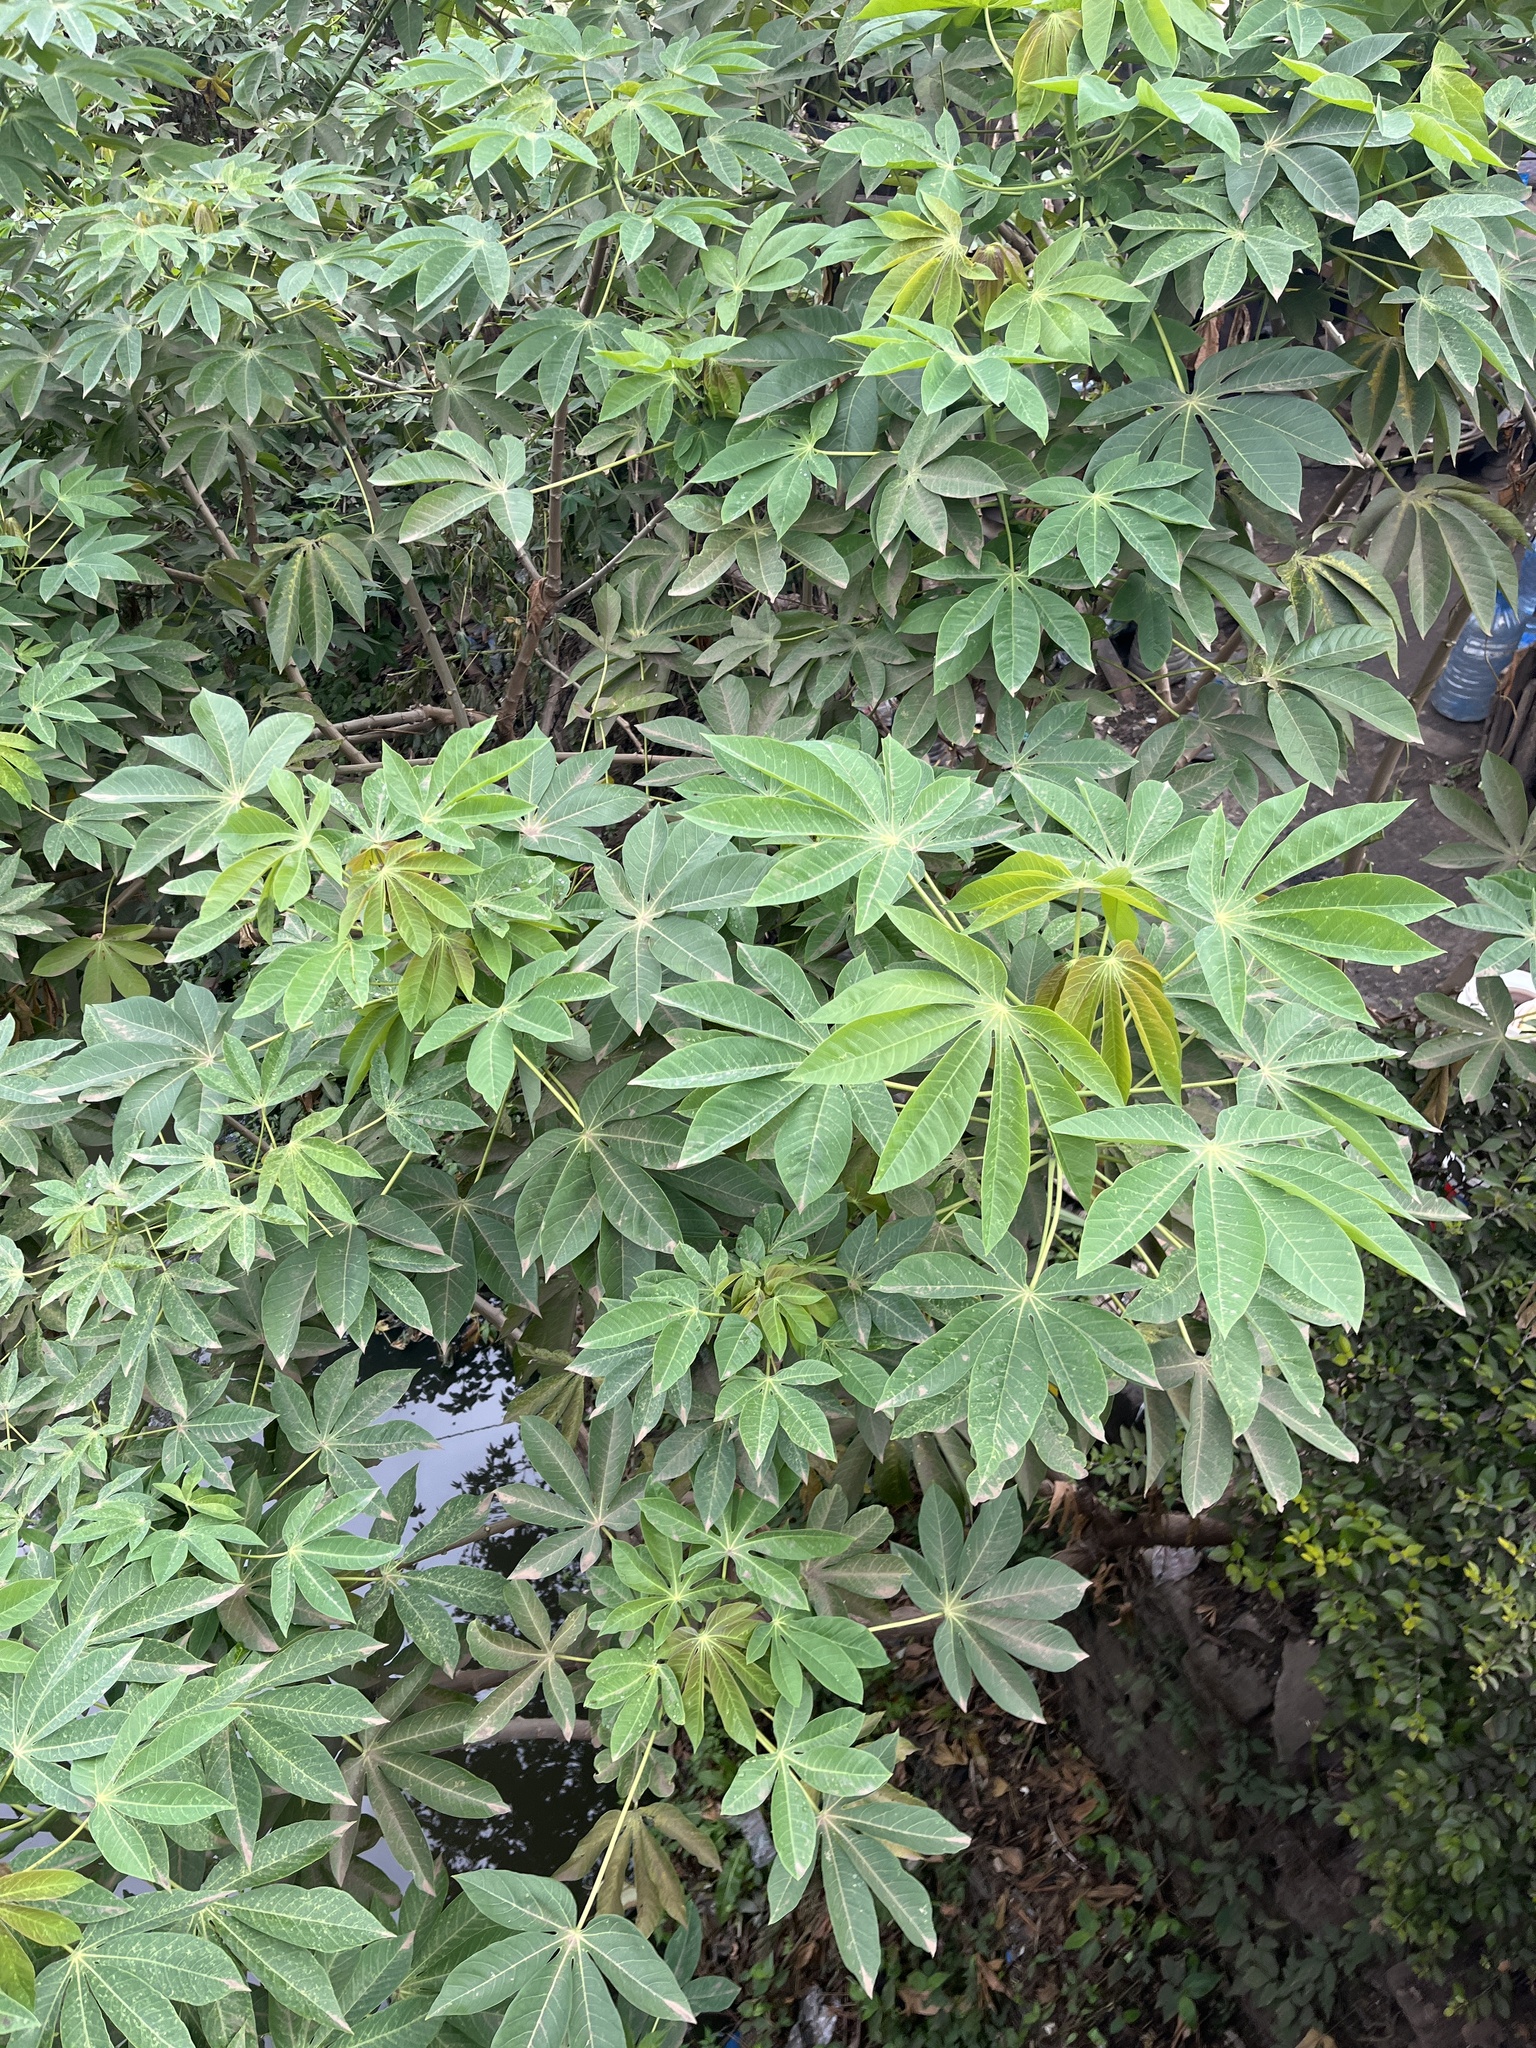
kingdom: Plantae
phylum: Tracheophyta
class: Magnoliopsida
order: Malpighiales
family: Euphorbiaceae
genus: Manihot
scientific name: Manihot esculenta
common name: Cassava
